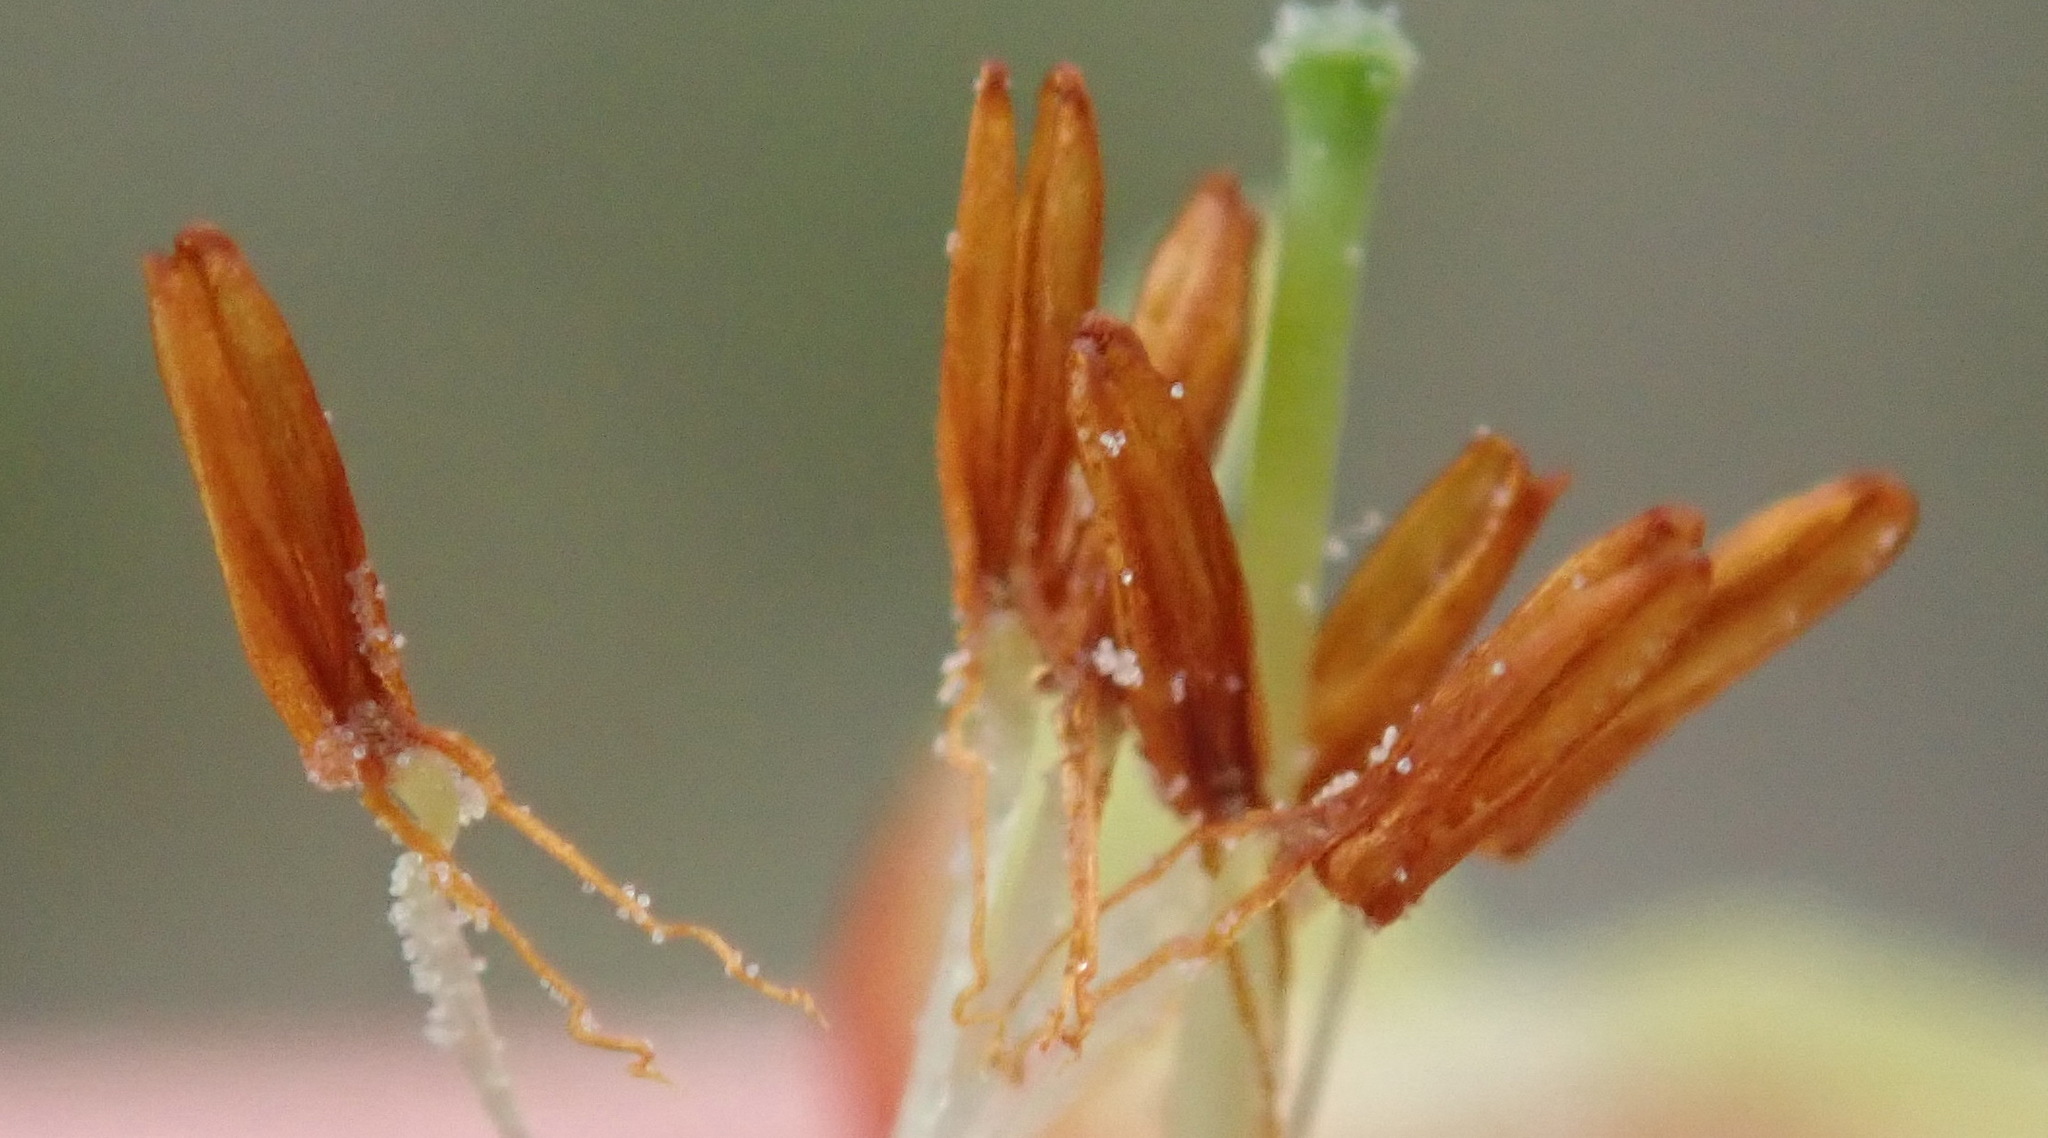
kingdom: Plantae
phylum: Tracheophyta
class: Magnoliopsida
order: Ericales
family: Ericaceae
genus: Erica
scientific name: Erica discolor
